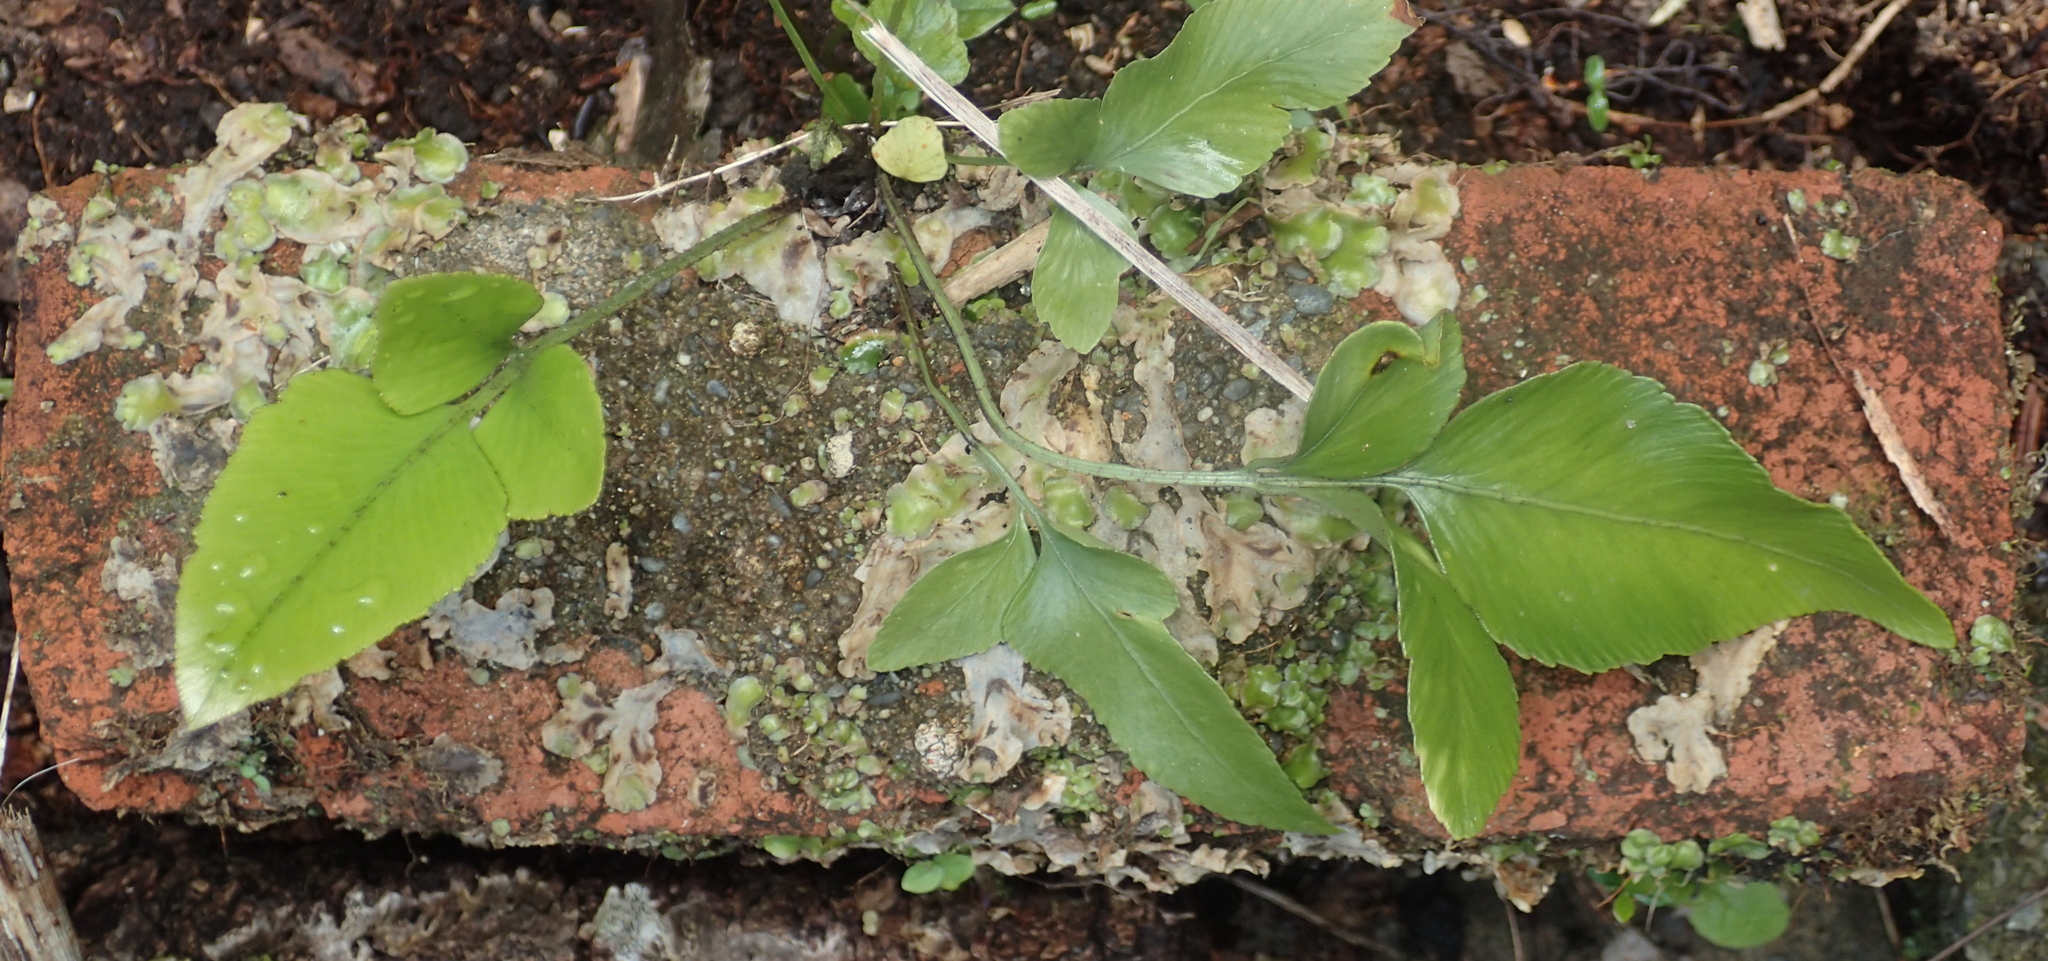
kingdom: Plantae
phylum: Marchantiophyta
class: Marchantiopsida
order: Lunulariales
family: Lunulariaceae
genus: Lunularia
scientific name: Lunularia cruciata
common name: Crescent-cup liverwort
